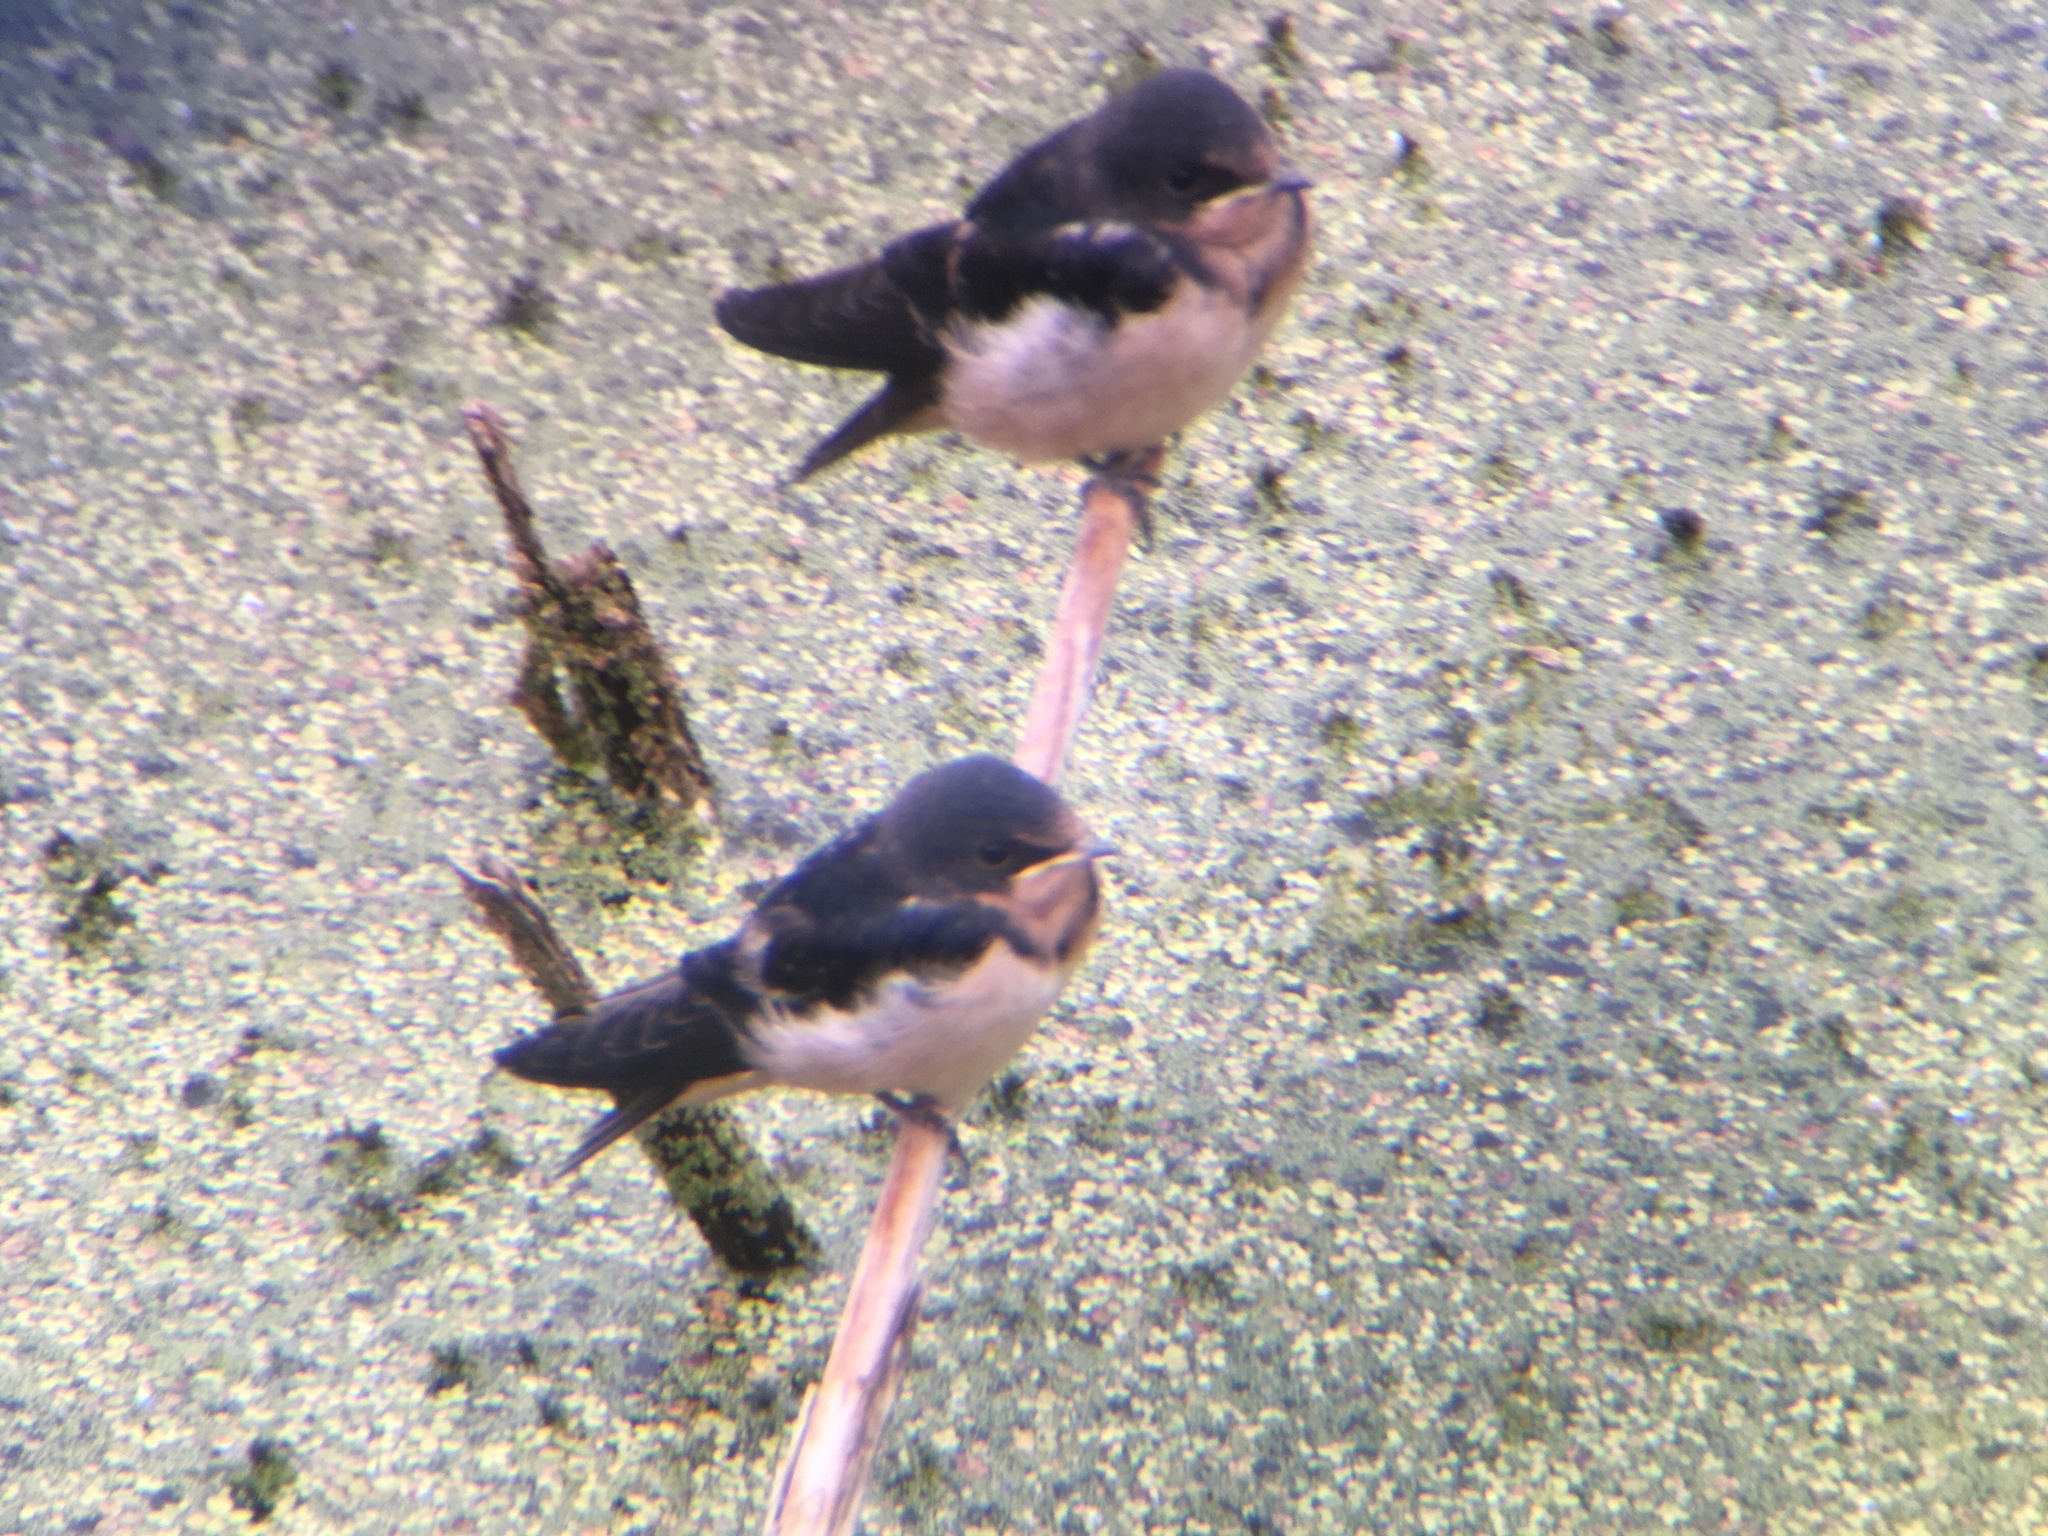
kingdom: Animalia
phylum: Chordata
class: Aves
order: Passeriformes
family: Hirundinidae
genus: Hirundo
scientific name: Hirundo rustica
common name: Barn swallow
